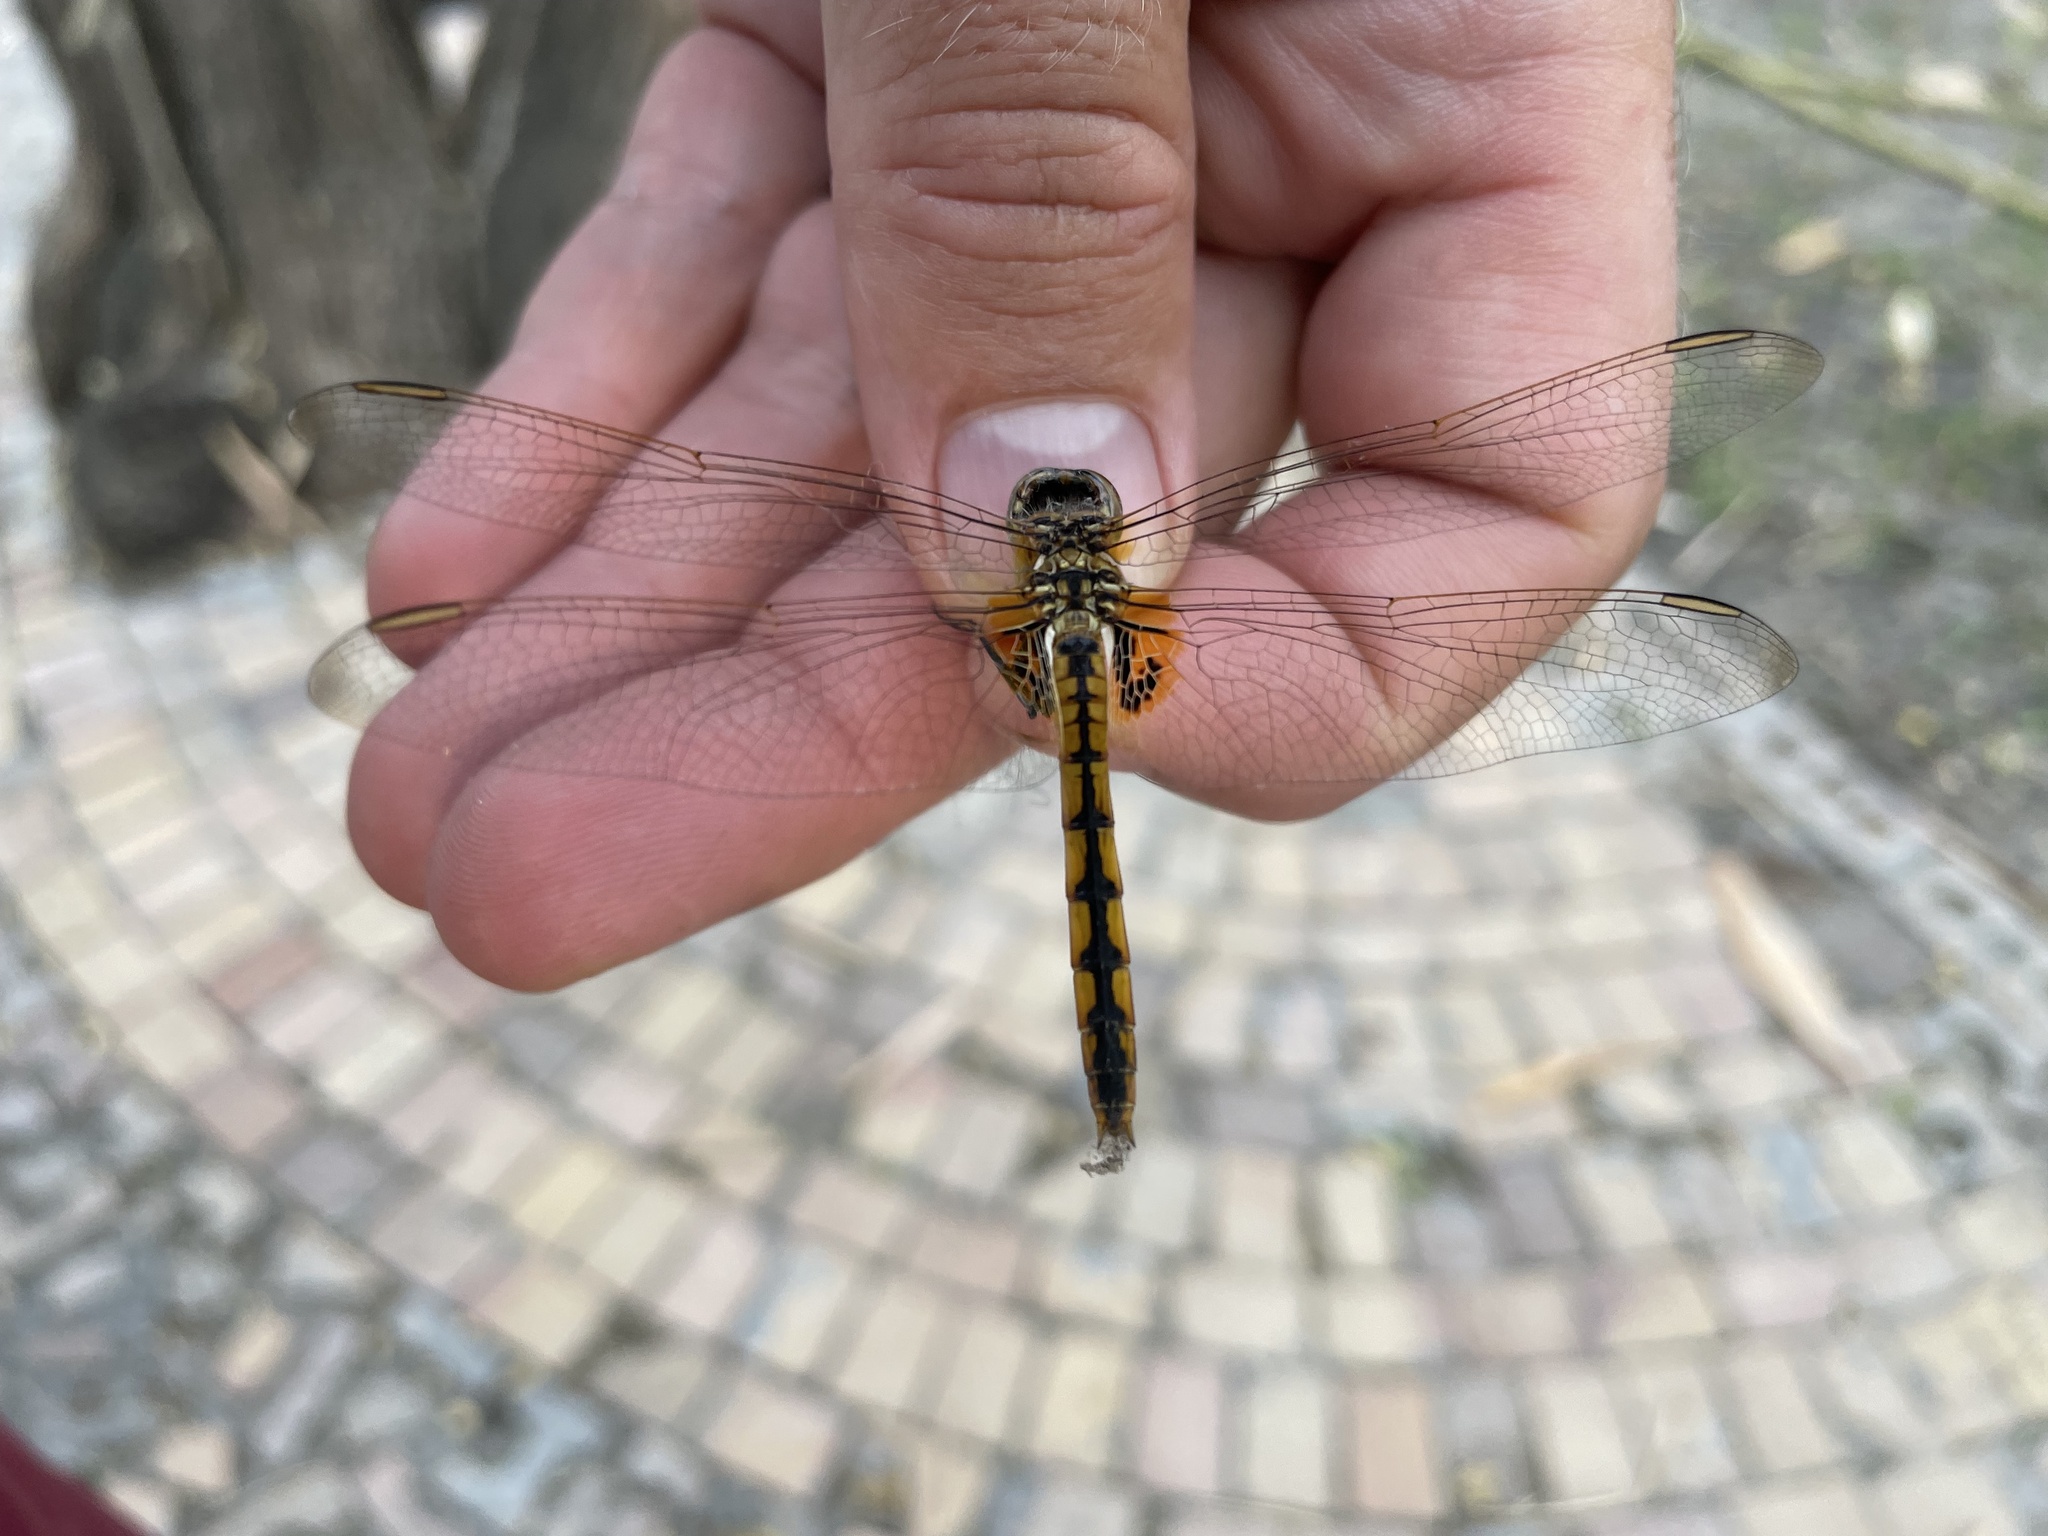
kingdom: Animalia
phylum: Arthropoda
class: Insecta
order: Odonata
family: Libellulidae
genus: Urothemis
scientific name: Urothemis edwardsii
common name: Blue basker
